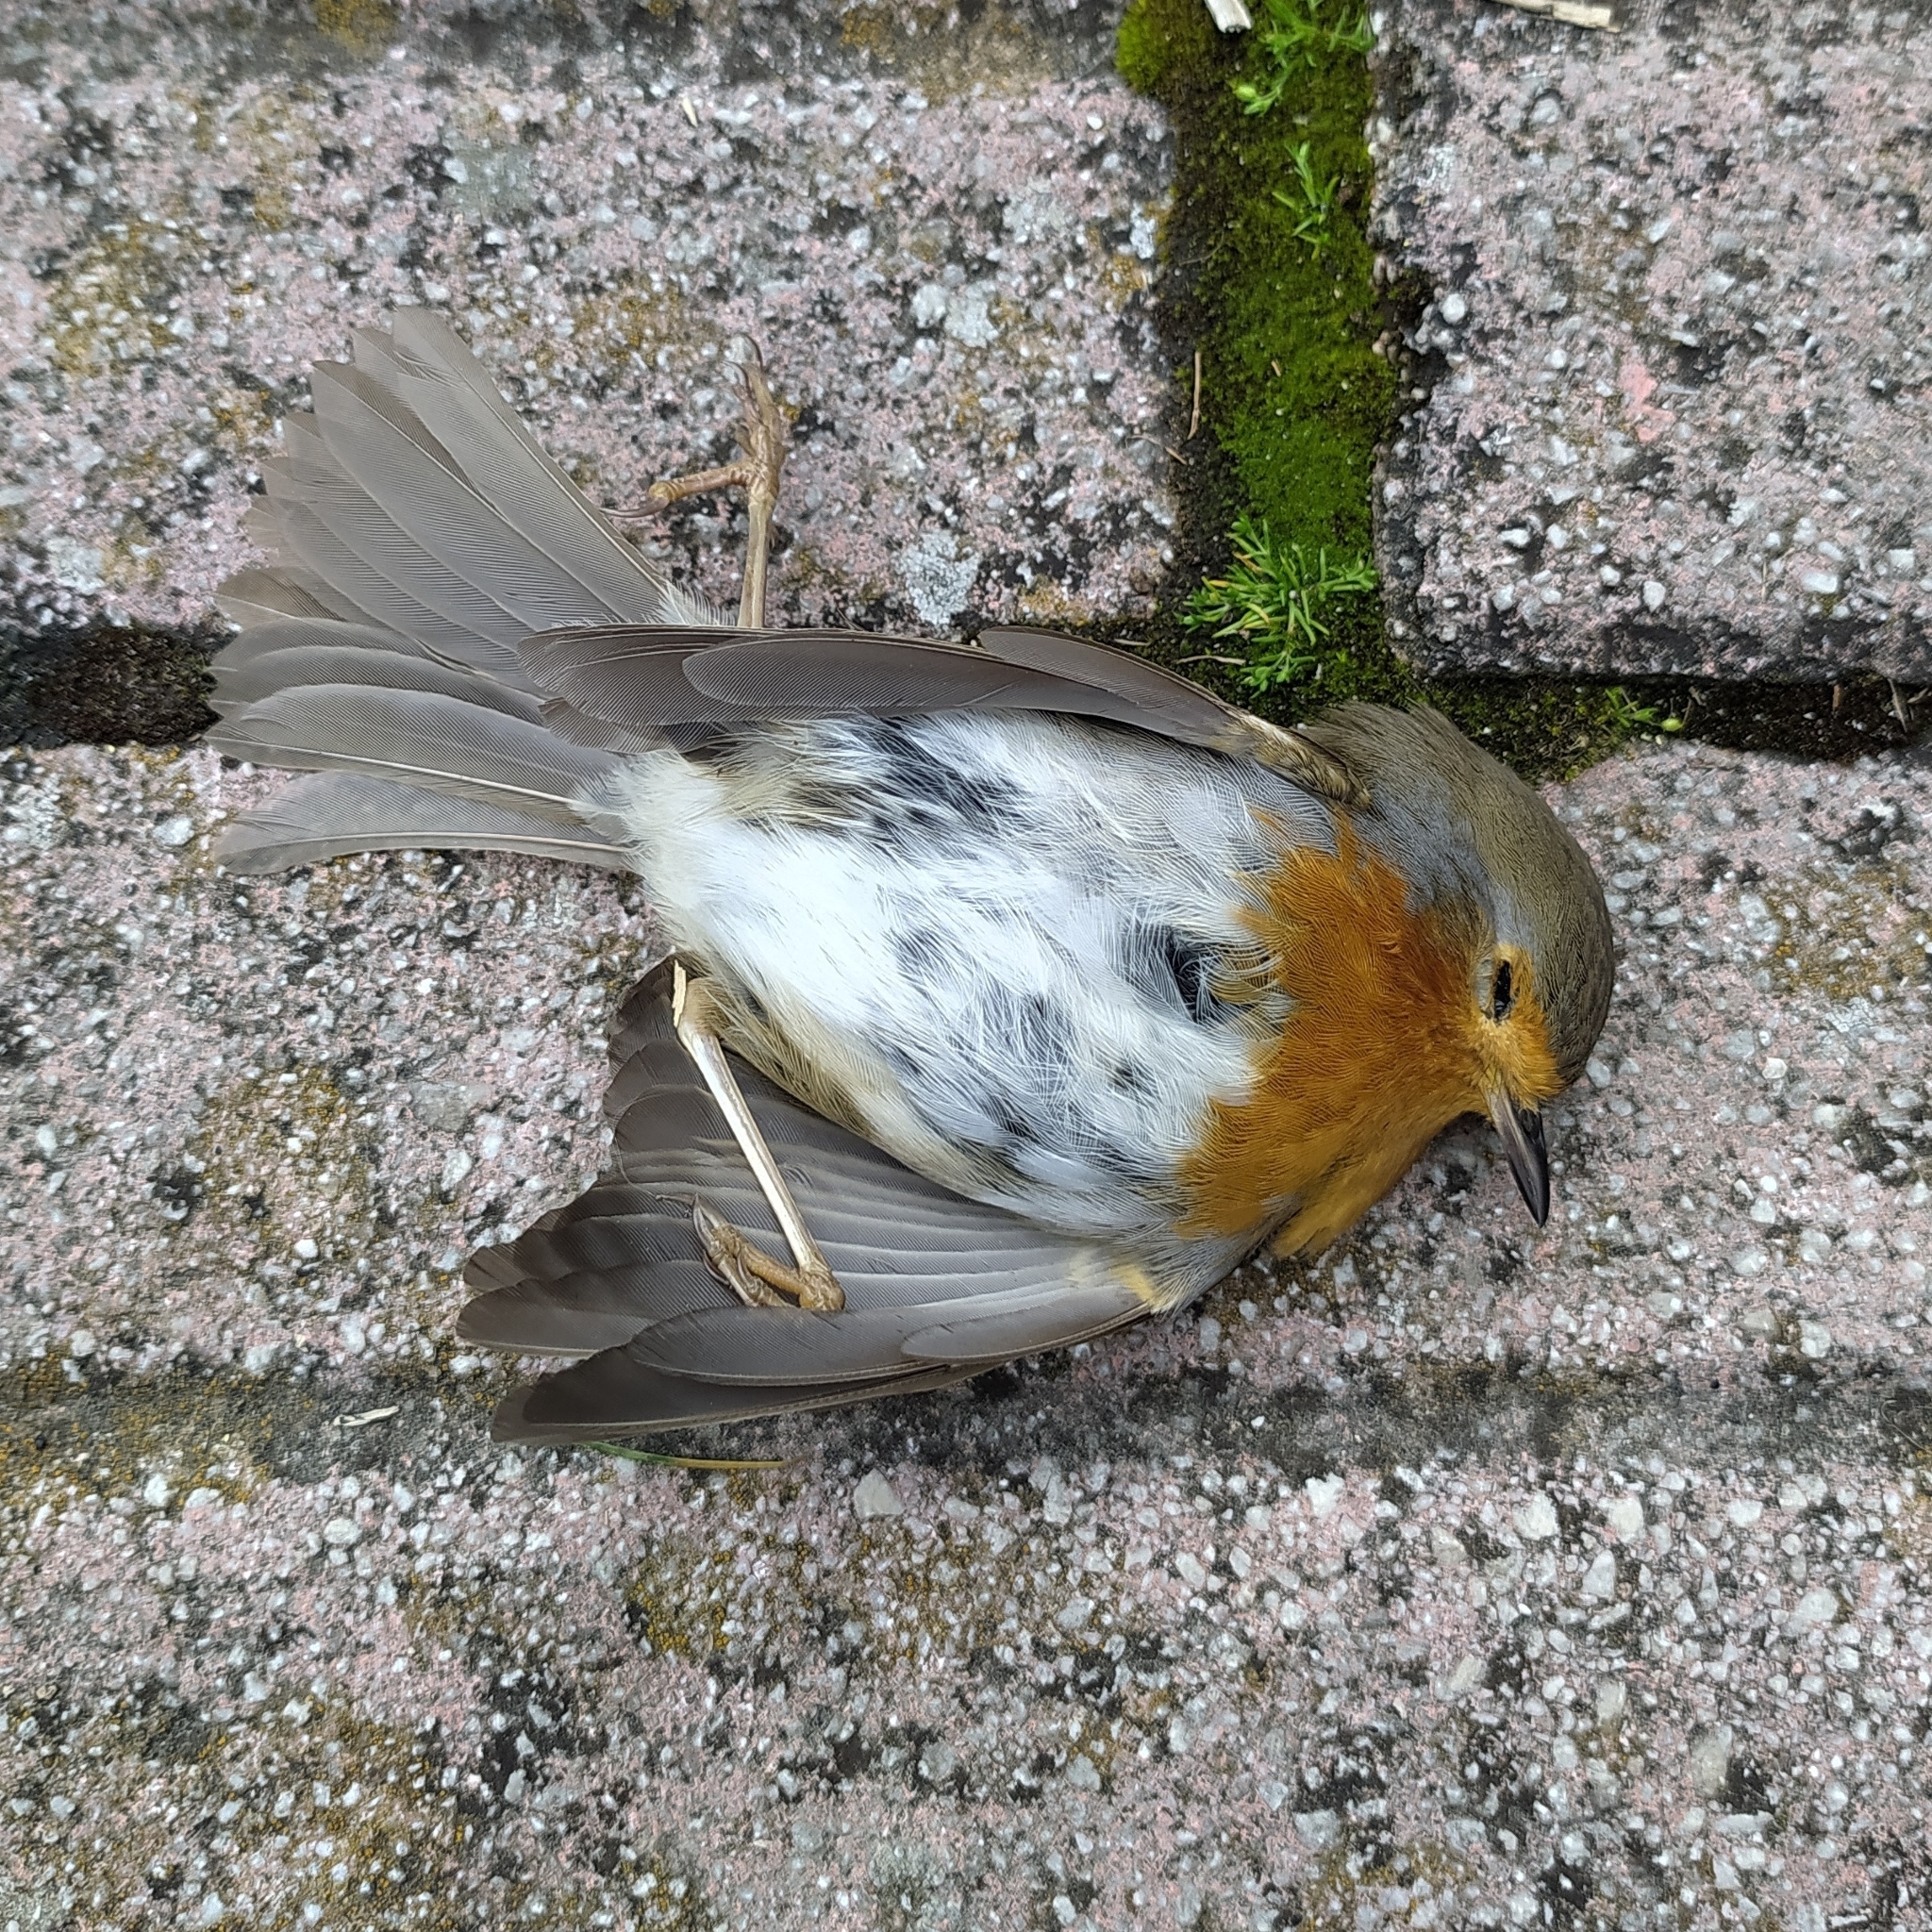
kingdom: Animalia
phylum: Chordata
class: Aves
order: Passeriformes
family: Muscicapidae
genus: Erithacus
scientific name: Erithacus rubecula
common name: European robin
